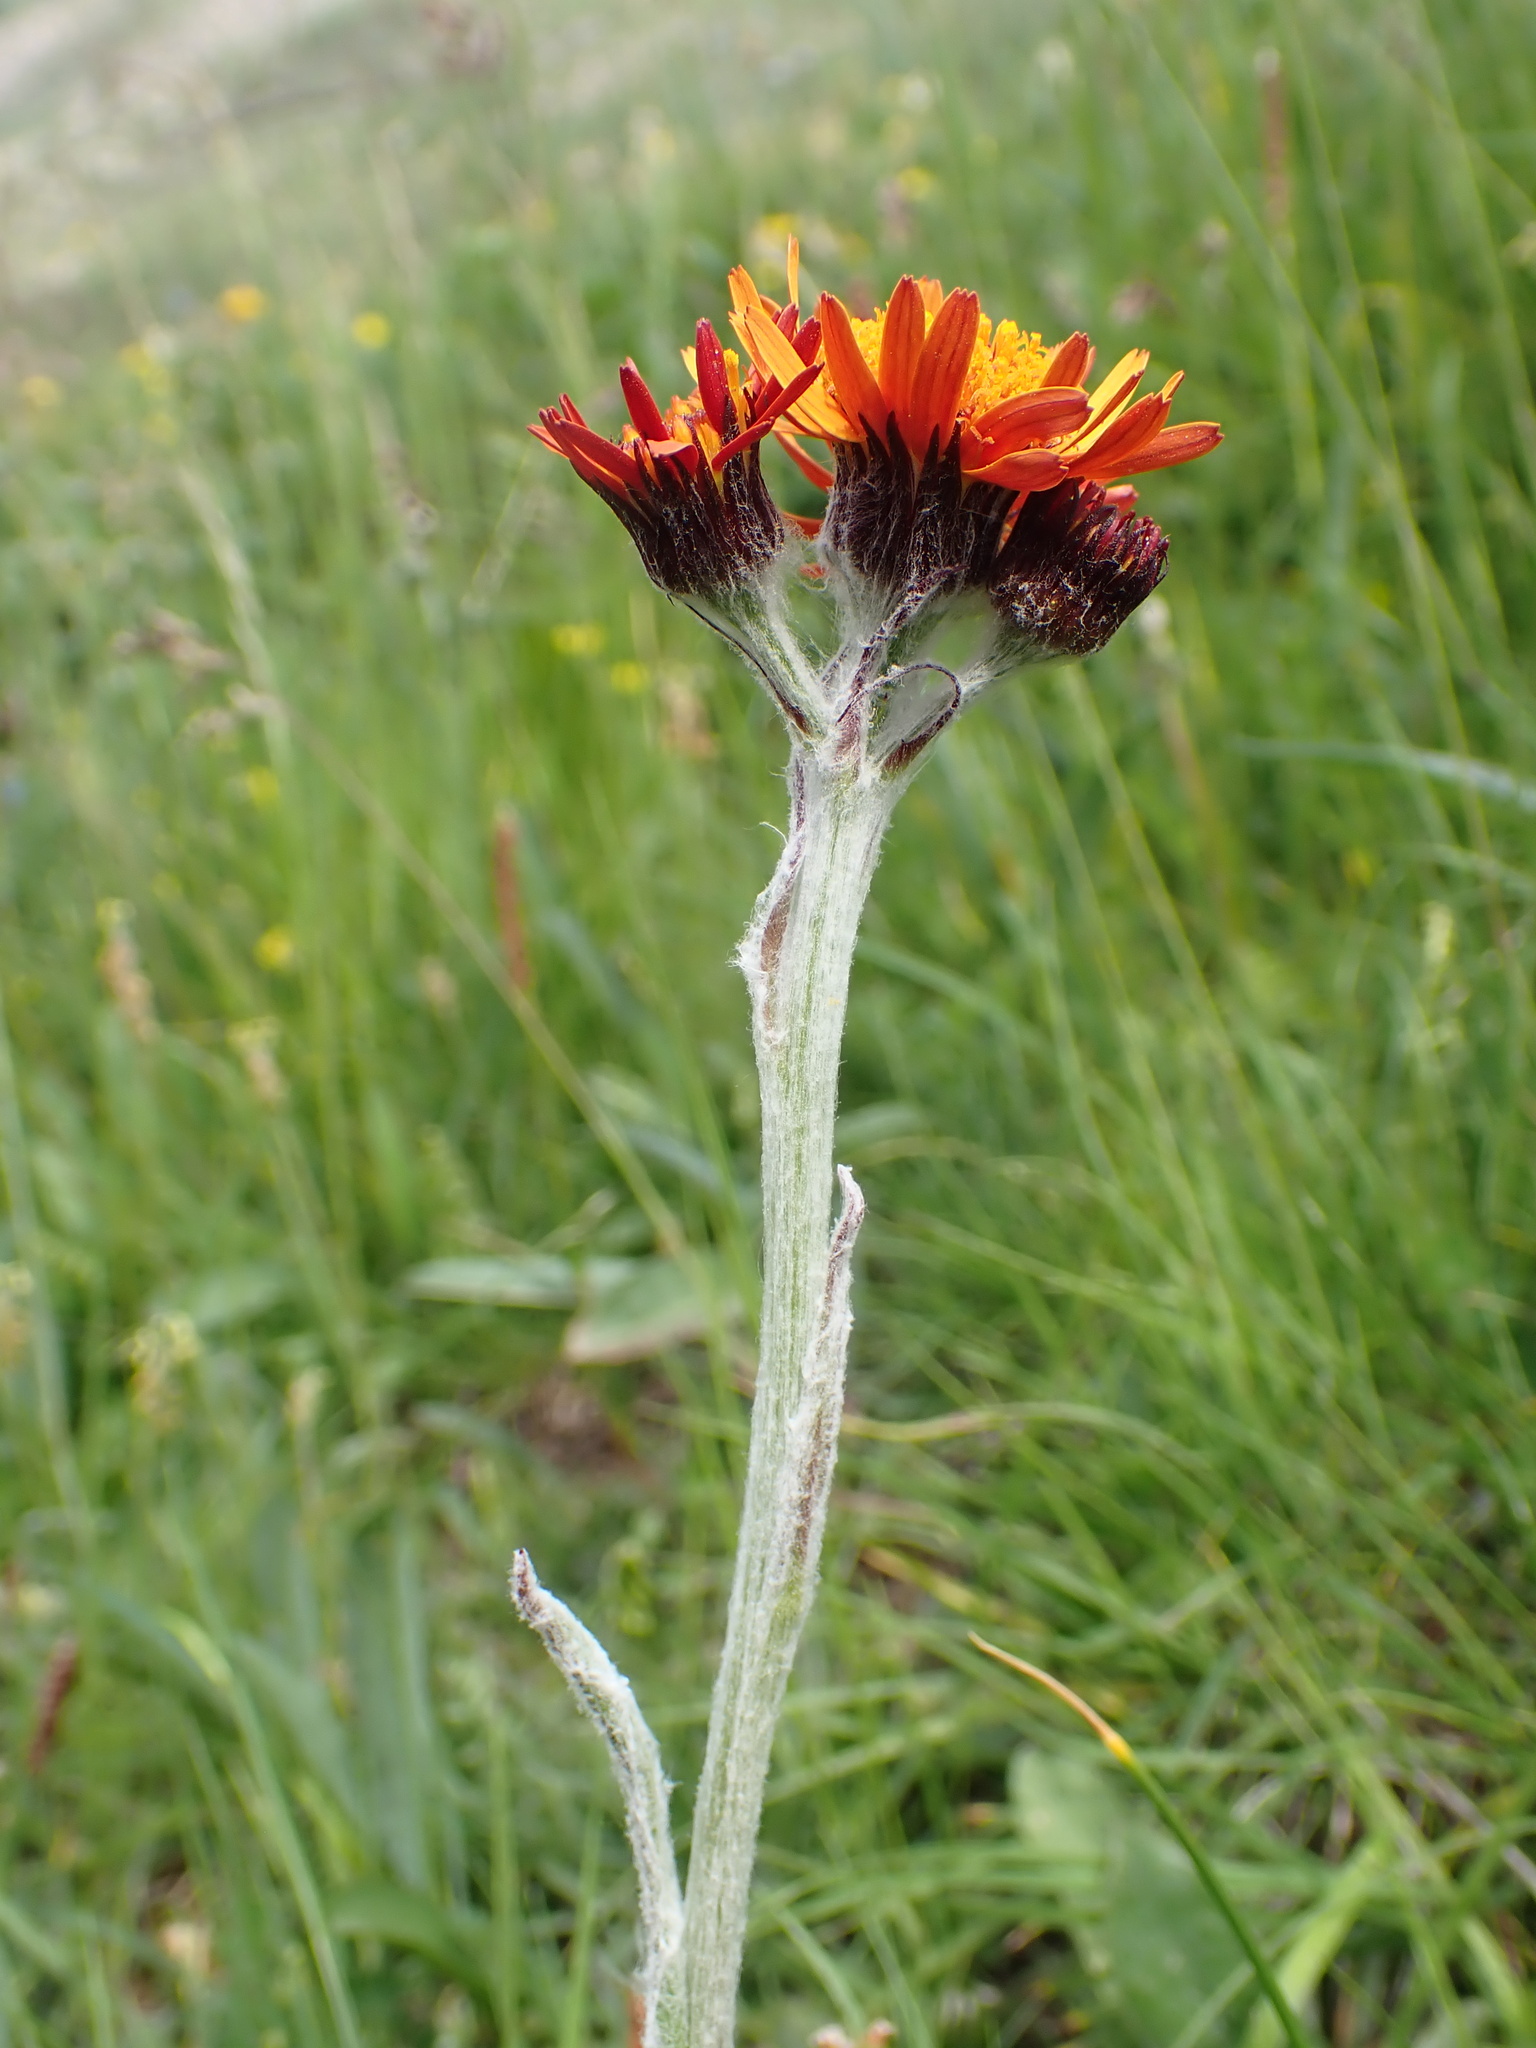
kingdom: Plantae
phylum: Tracheophyta
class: Magnoliopsida
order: Asterales
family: Asteraceae
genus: Tephroseris
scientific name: Tephroseris integrifolia
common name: Field fleawort
